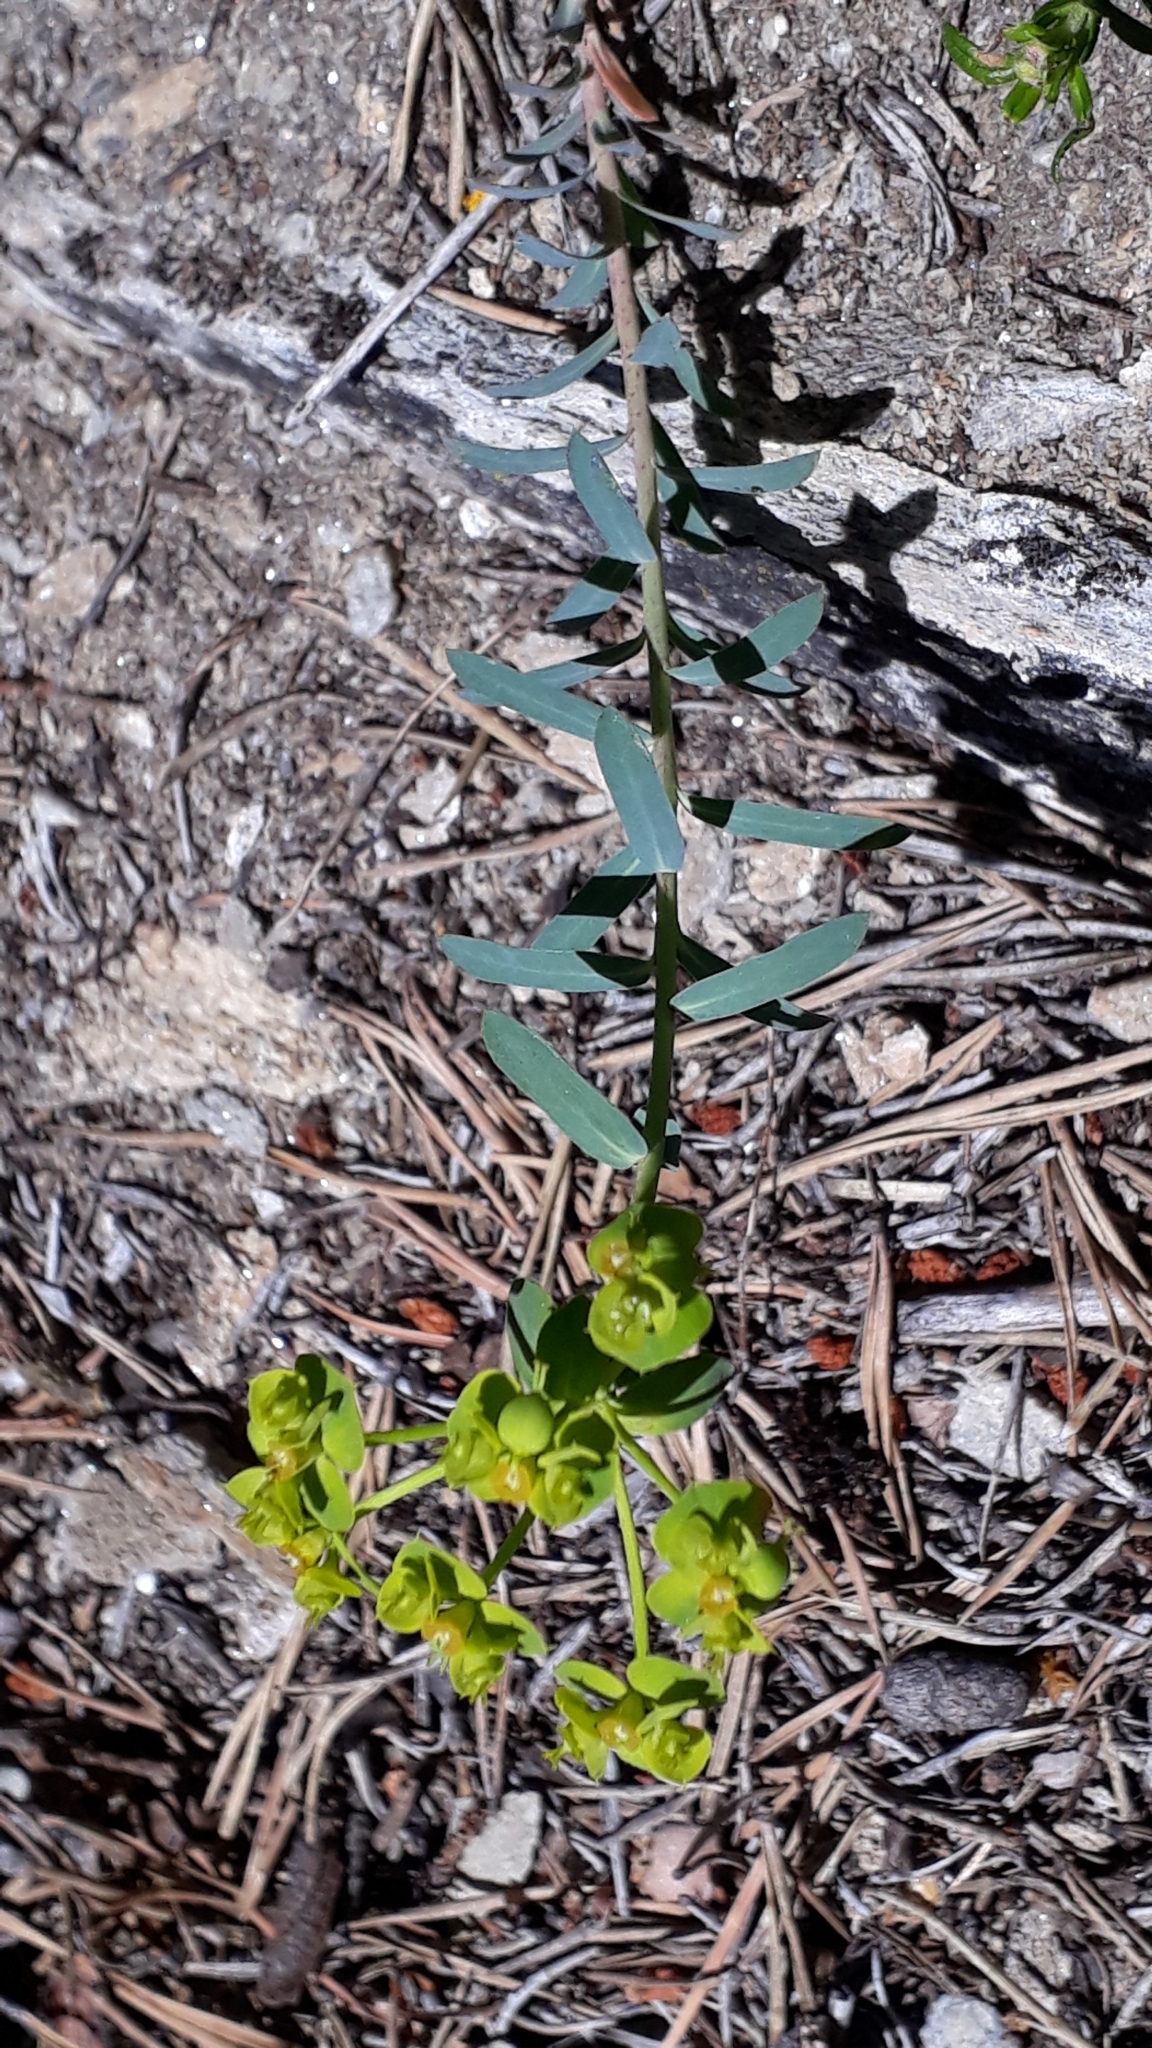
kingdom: Plantae
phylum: Tracheophyta
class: Magnoliopsida
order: Malpighiales
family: Euphorbiaceae
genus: Euphorbia
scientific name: Euphorbia seguieriana
